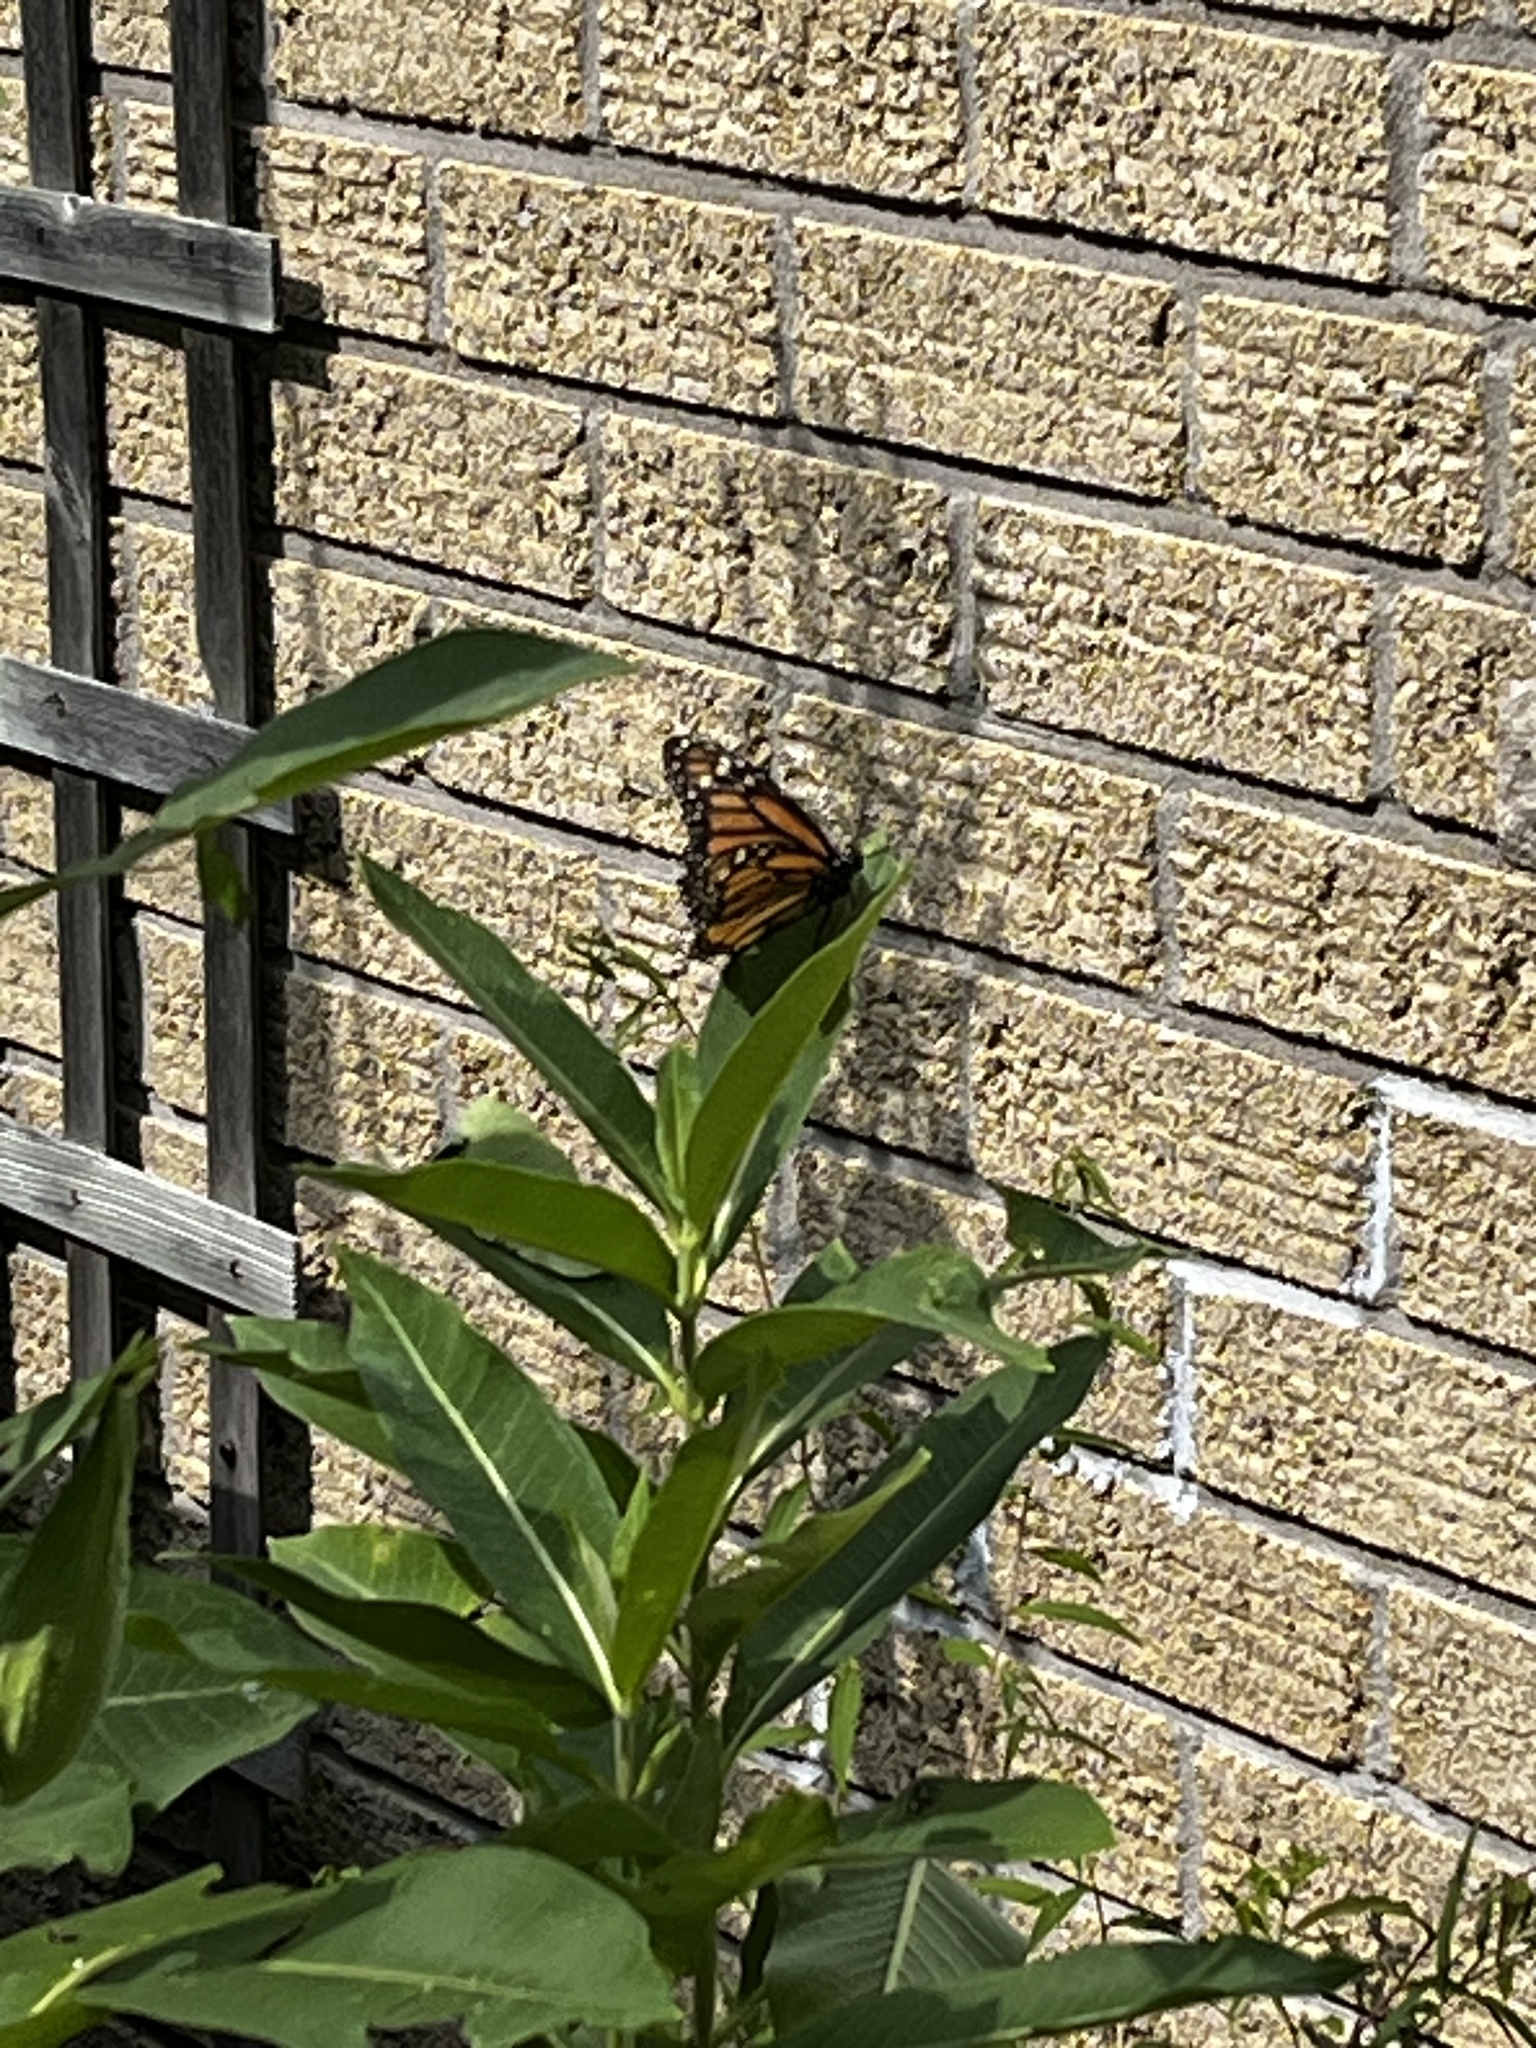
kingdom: Animalia
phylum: Arthropoda
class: Insecta
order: Lepidoptera
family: Nymphalidae
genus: Danaus
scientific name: Danaus plexippus
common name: Monarch
